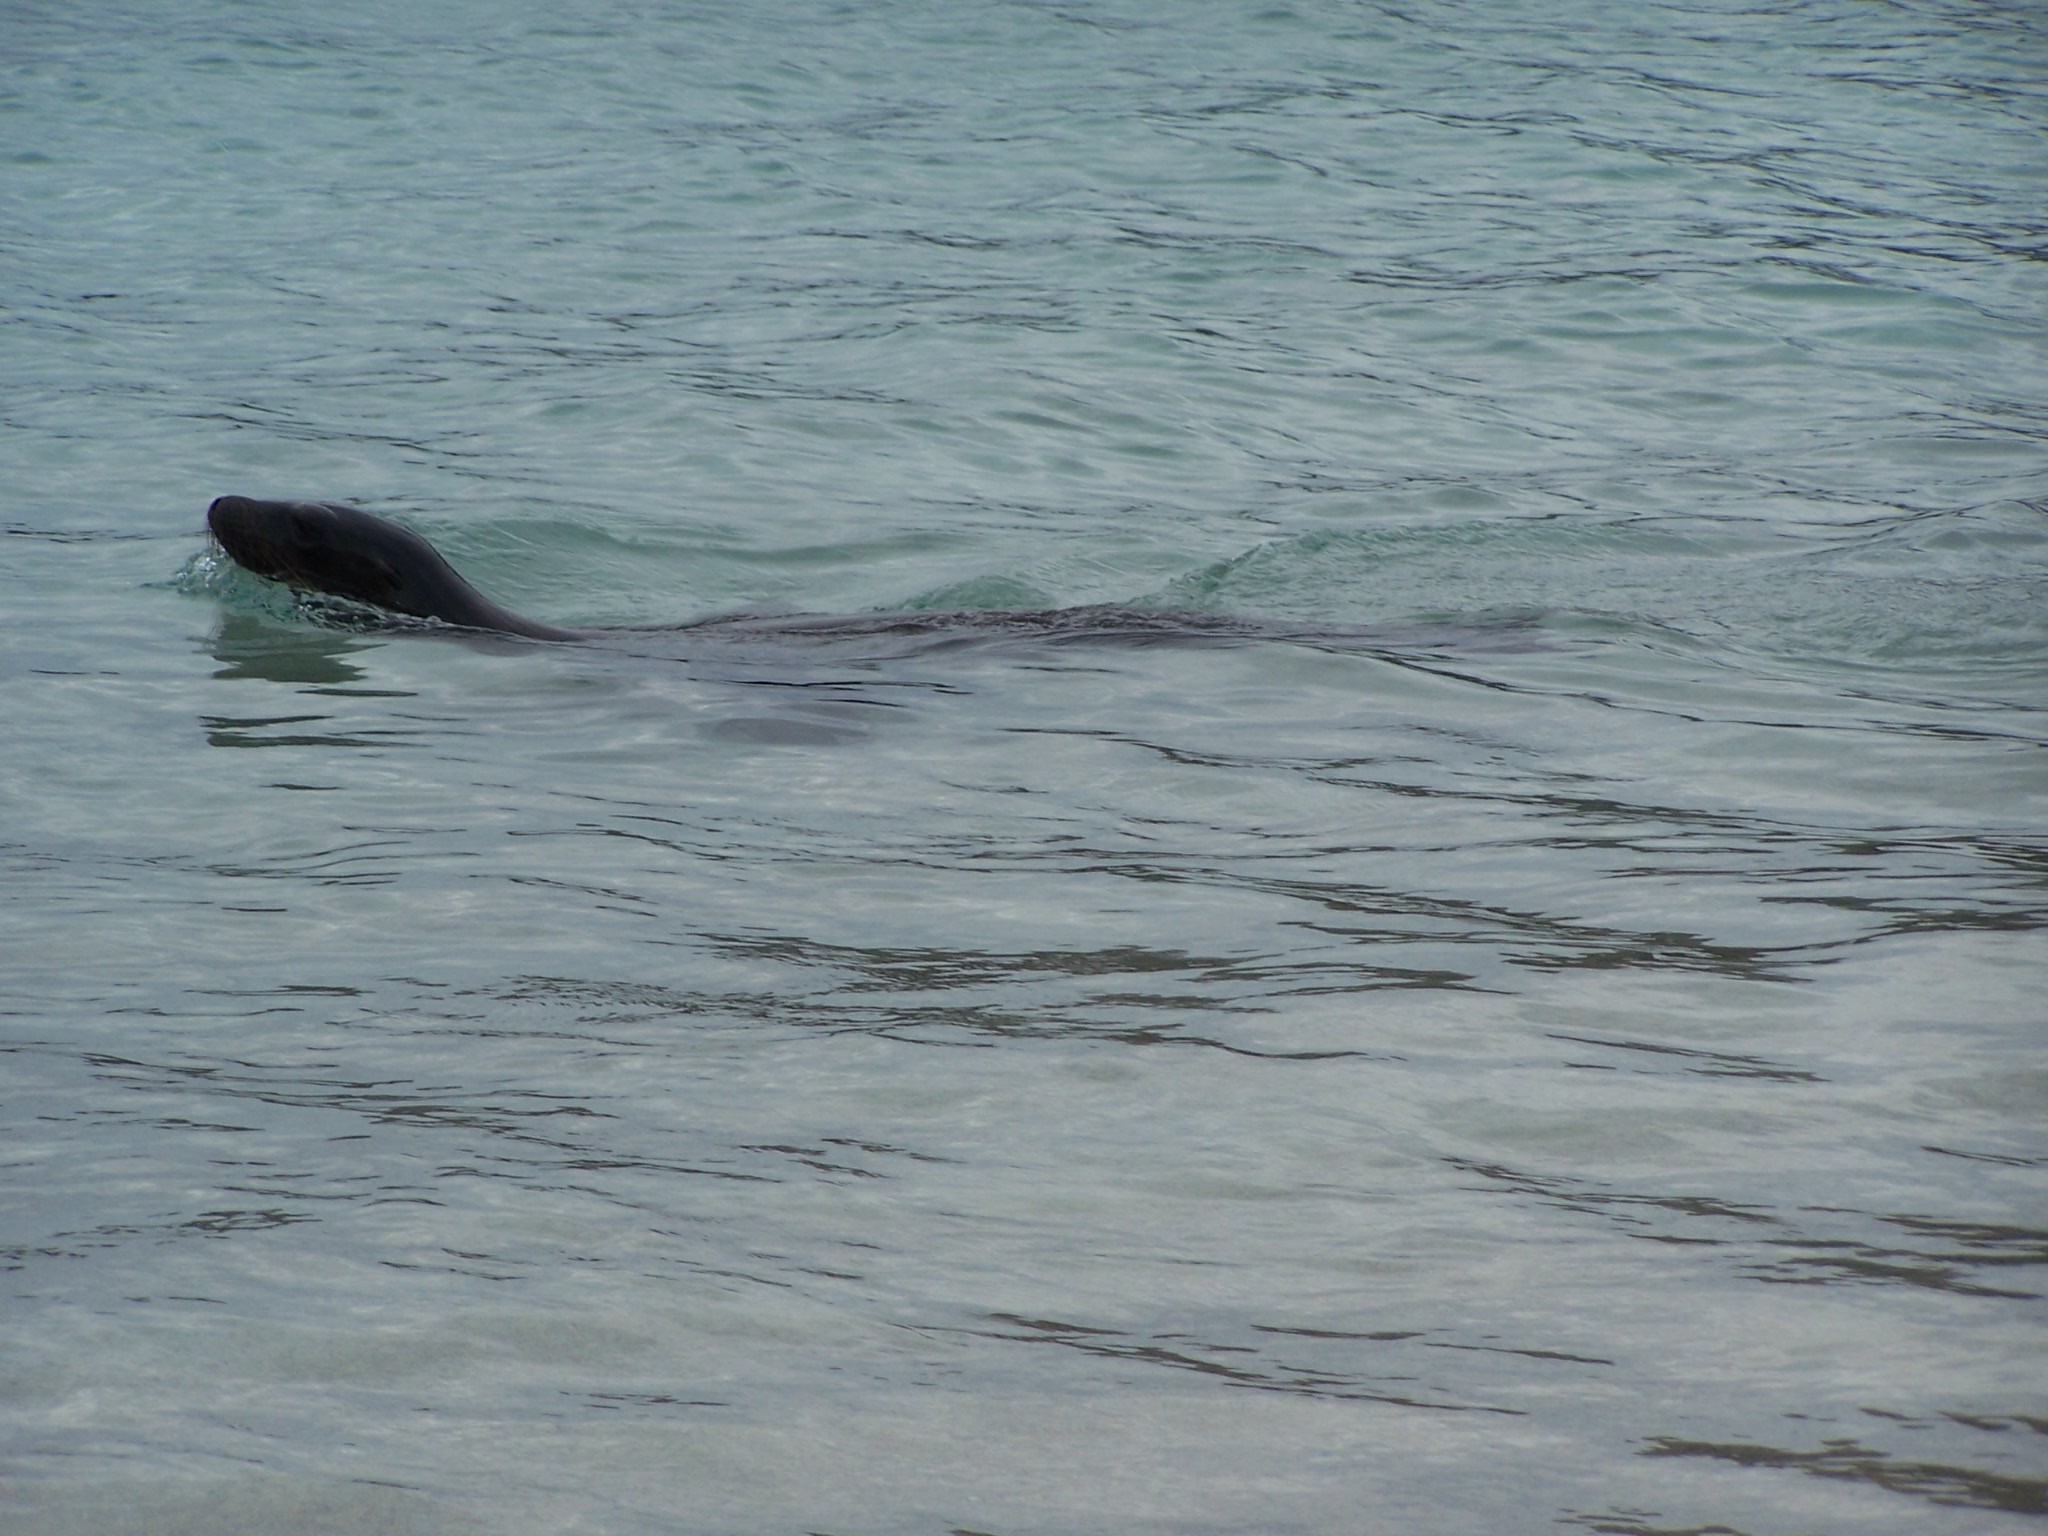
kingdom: Animalia
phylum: Chordata
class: Mammalia
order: Carnivora
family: Otariidae
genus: Zalophus
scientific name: Zalophus wollebaeki
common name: Galapagos sea lion
